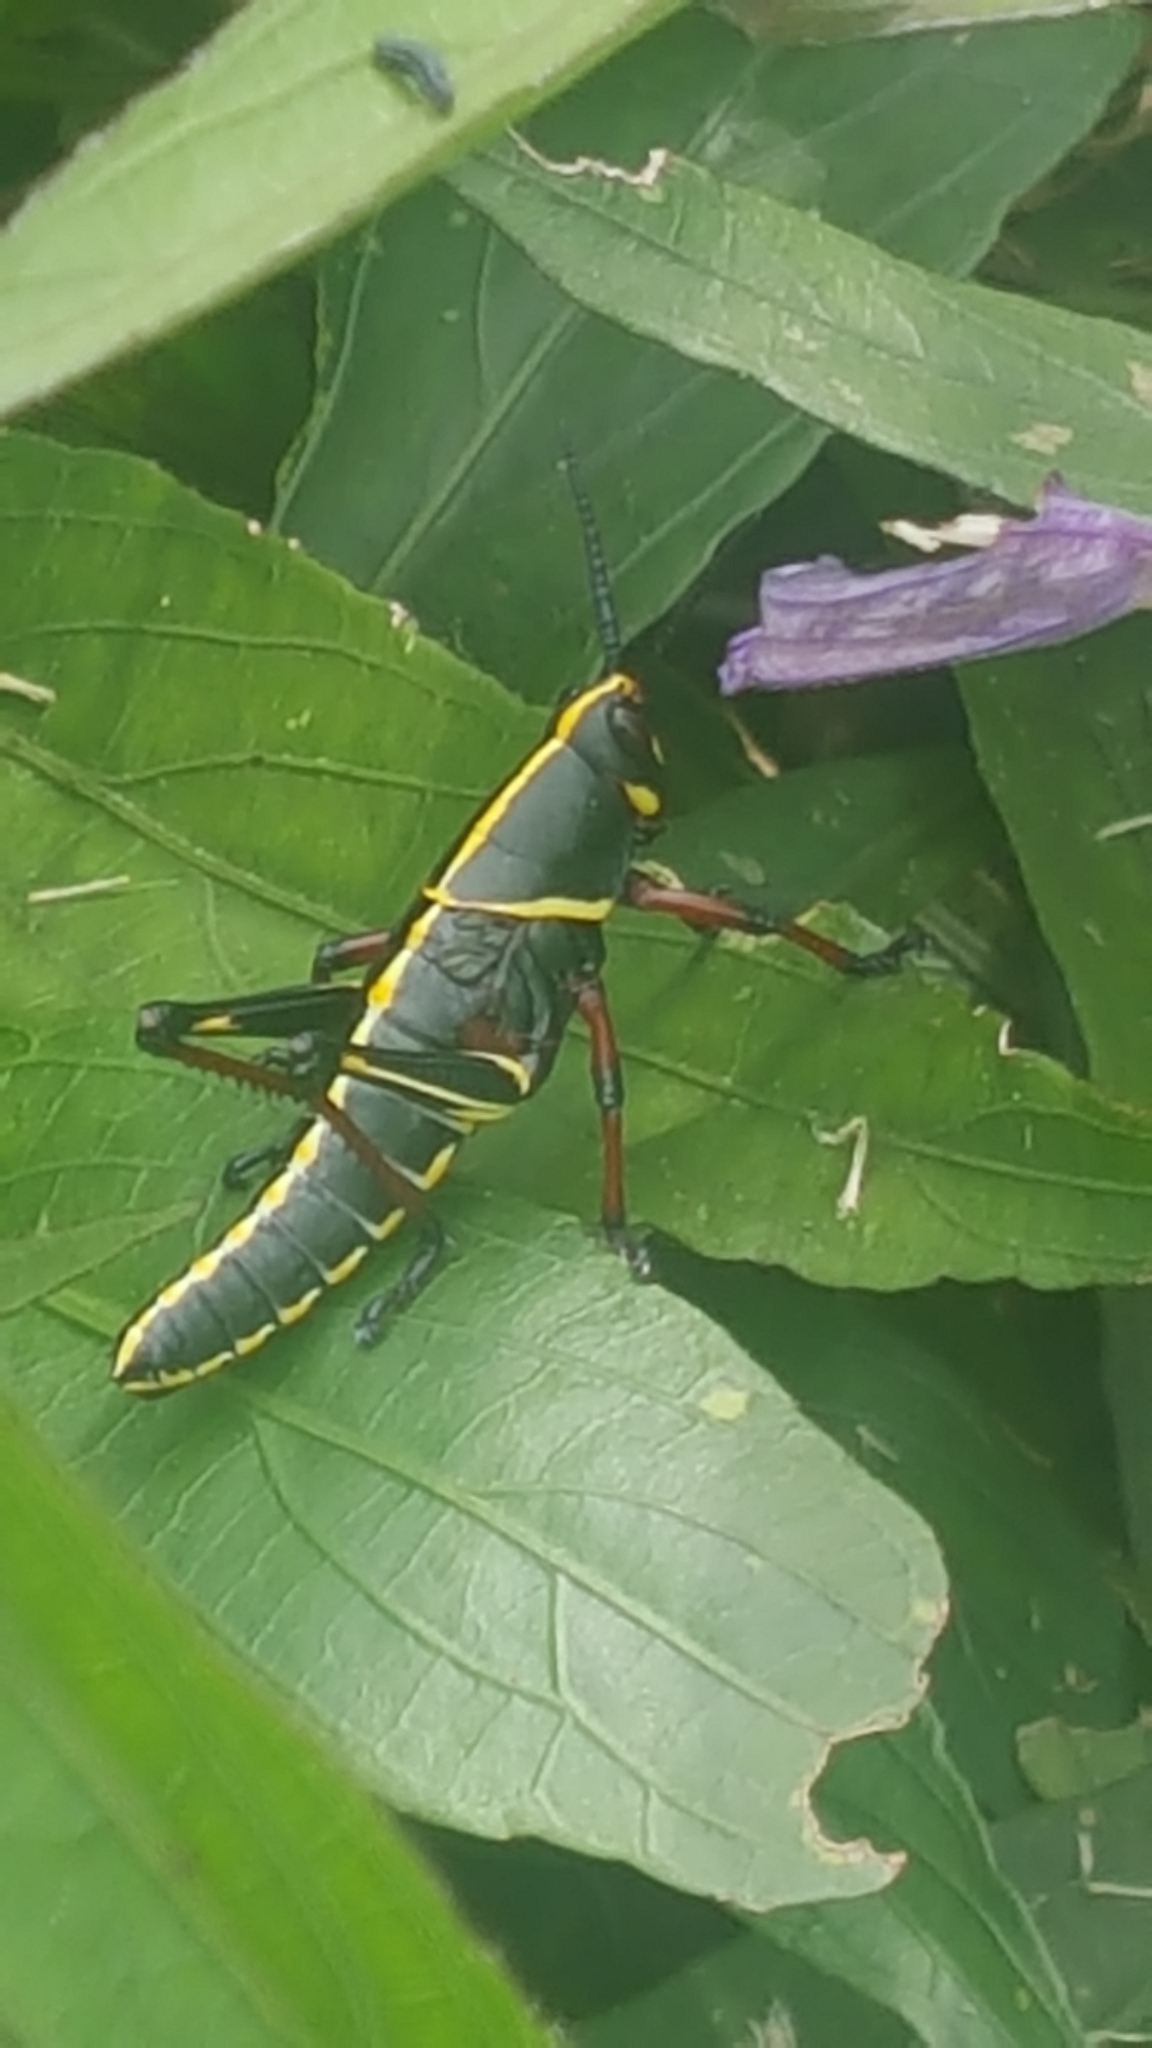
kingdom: Animalia
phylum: Arthropoda
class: Insecta
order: Orthoptera
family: Romaleidae
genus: Romalea
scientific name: Romalea microptera
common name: Eastern lubber grasshopper
